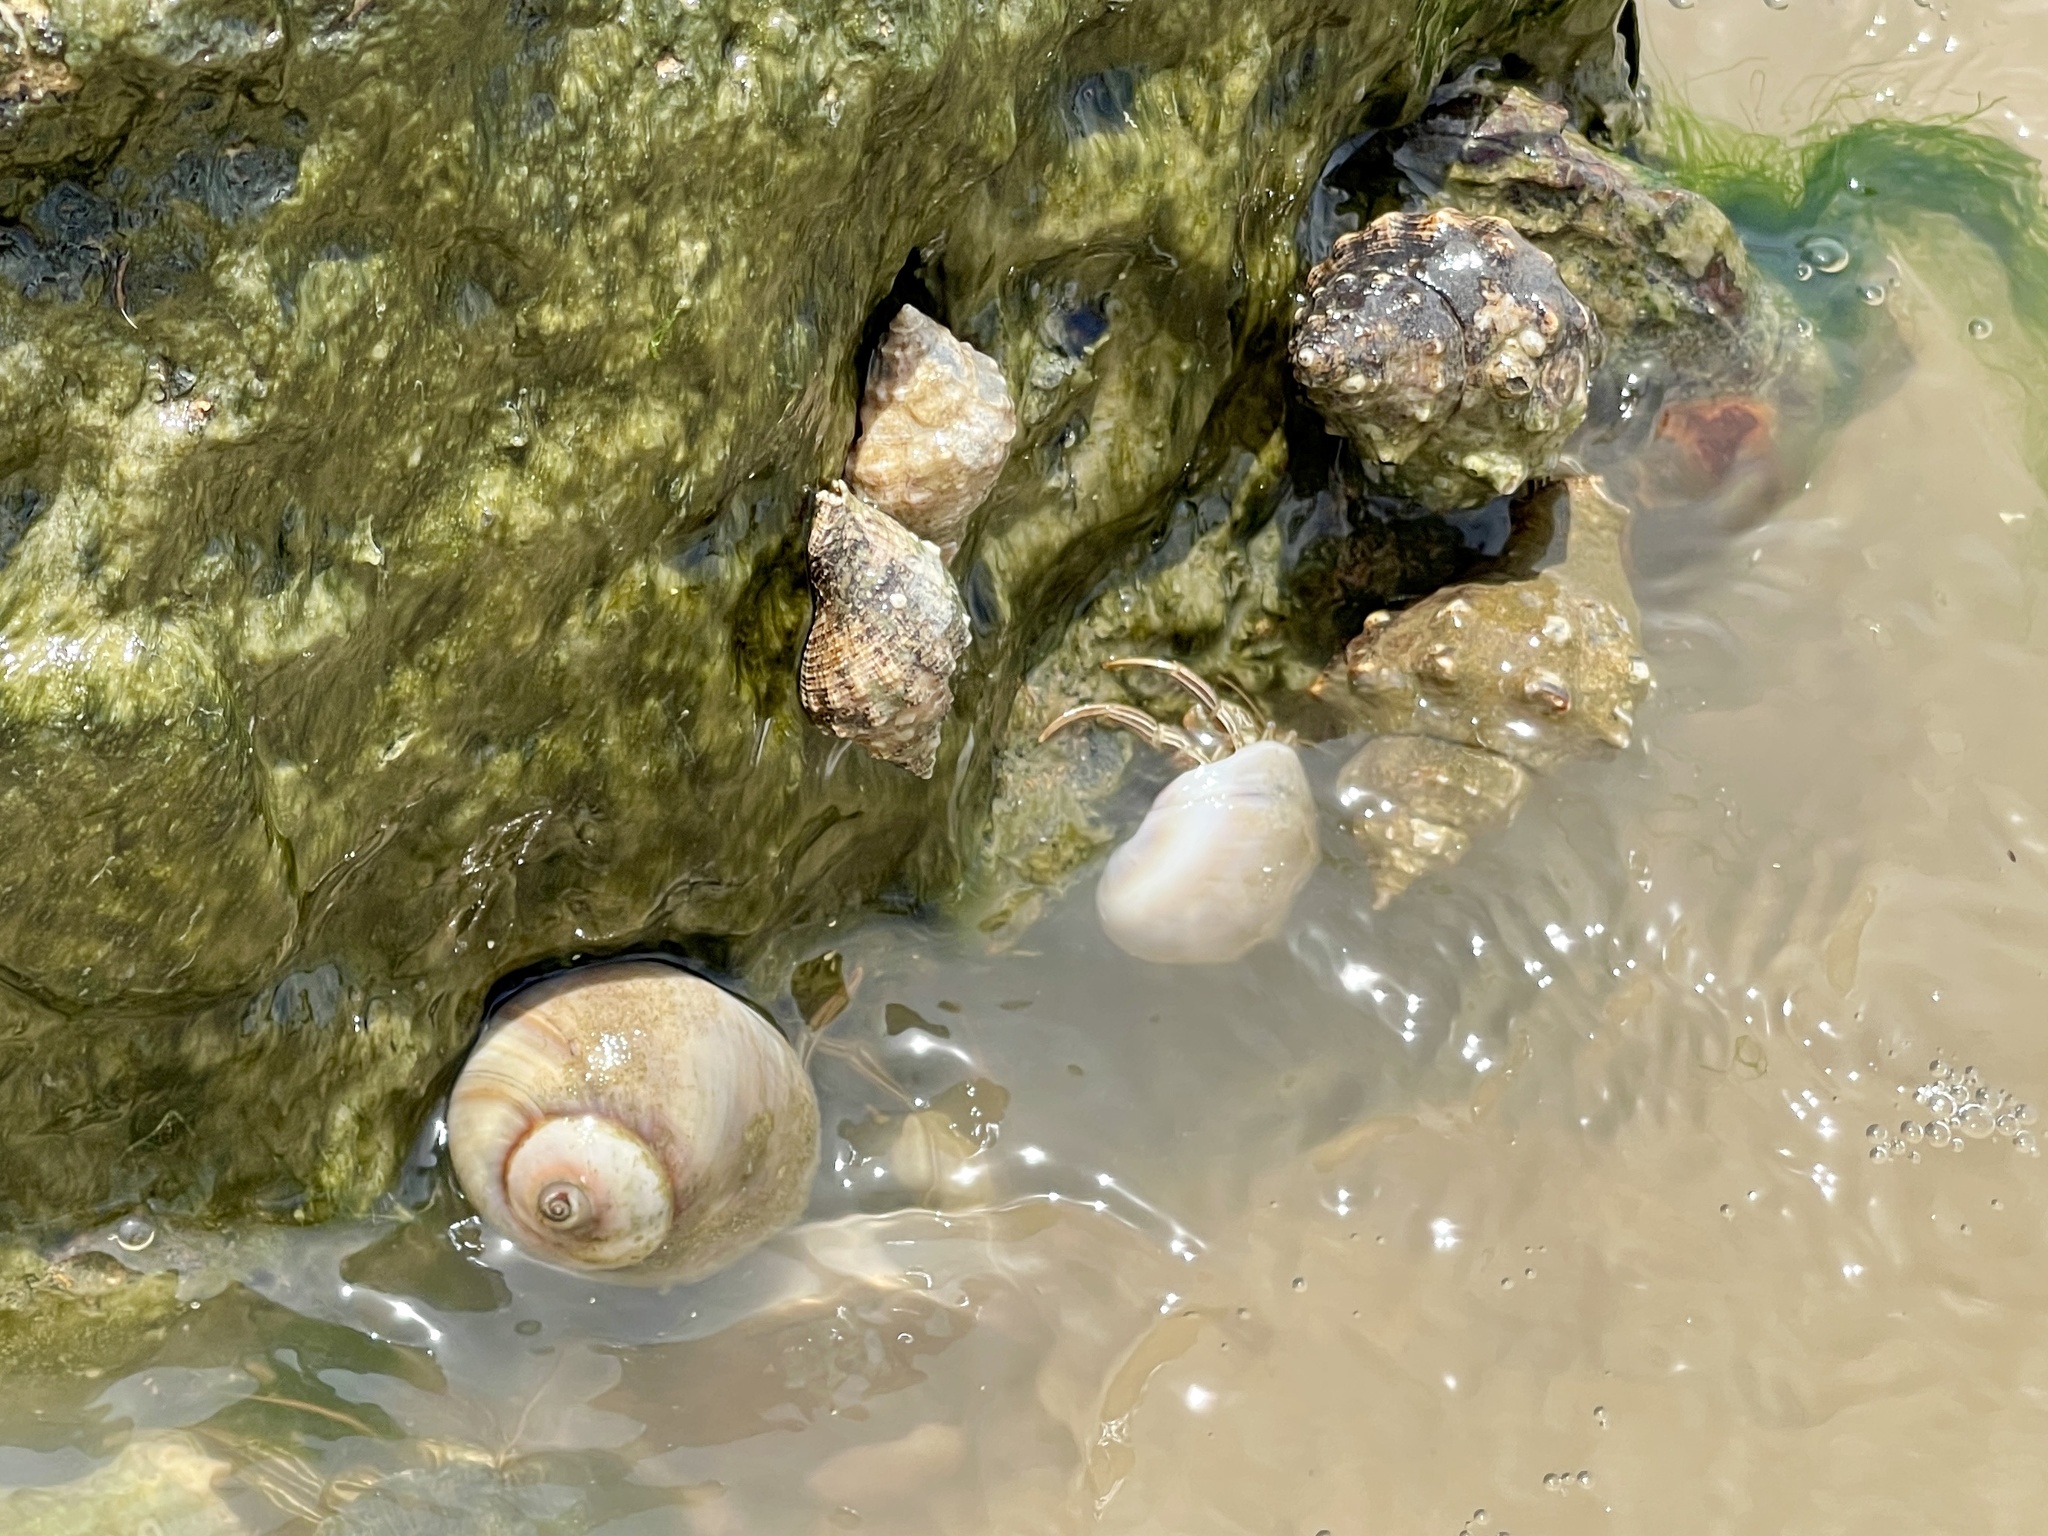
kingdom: Animalia
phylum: Arthropoda
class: Malacostraca
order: Decapoda
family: Diogenidae
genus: Clibanarius
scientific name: Clibanarius vittatus
